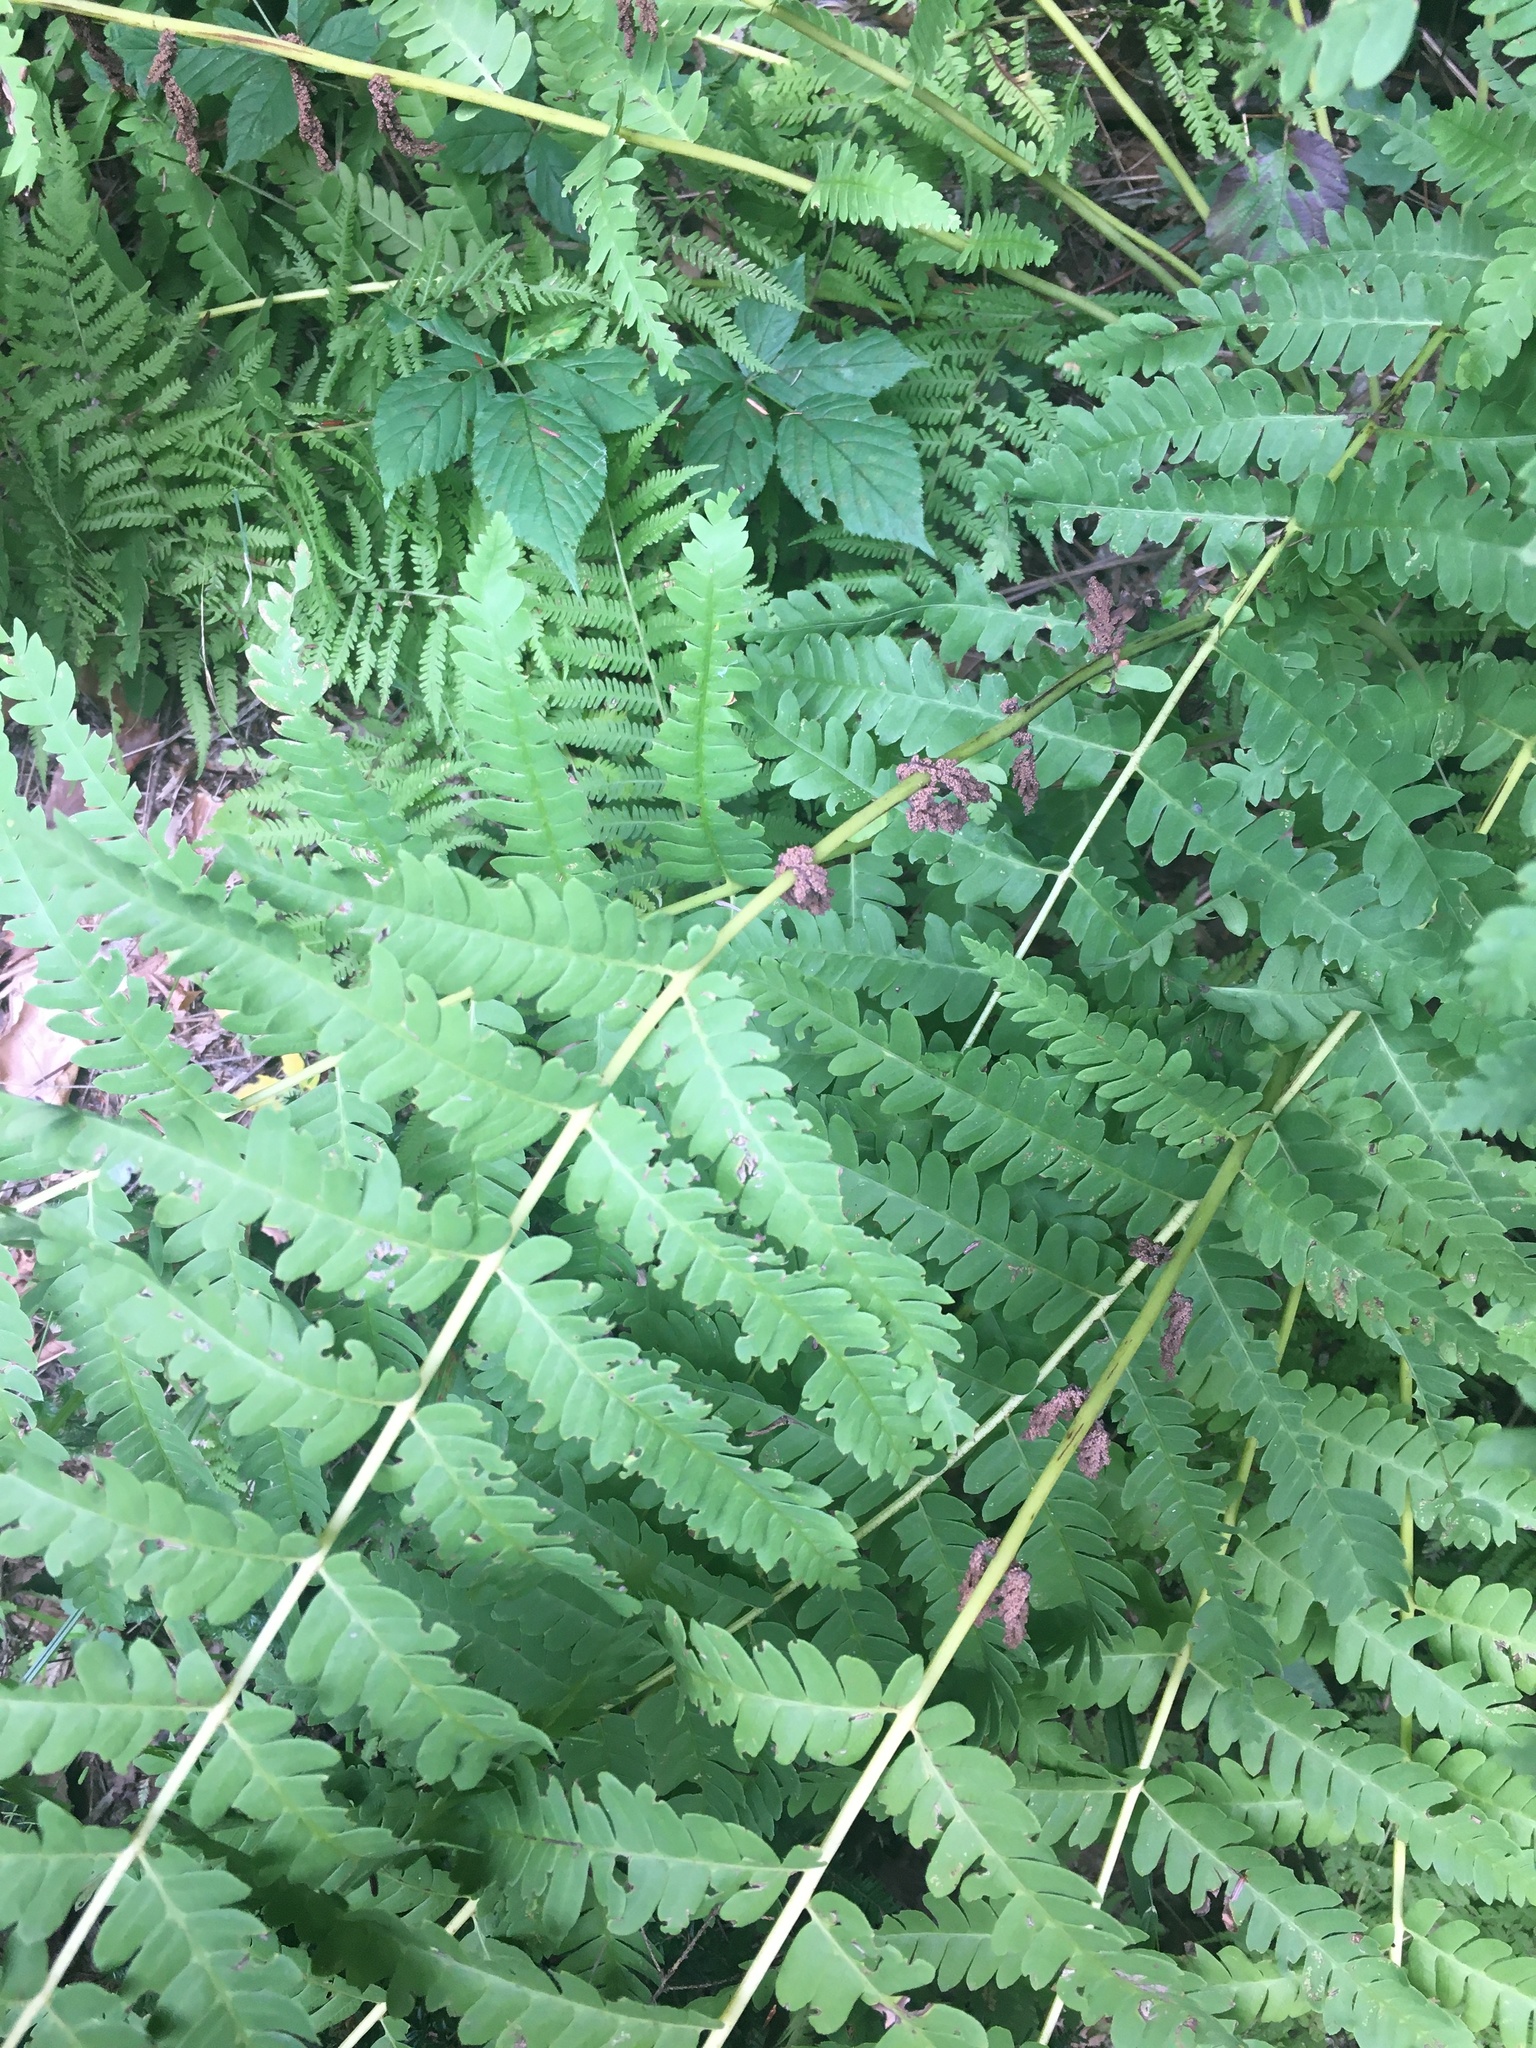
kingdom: Plantae
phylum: Tracheophyta
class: Polypodiopsida
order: Osmundales
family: Osmundaceae
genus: Claytosmunda
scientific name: Claytosmunda claytoniana
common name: Clayton's fern
